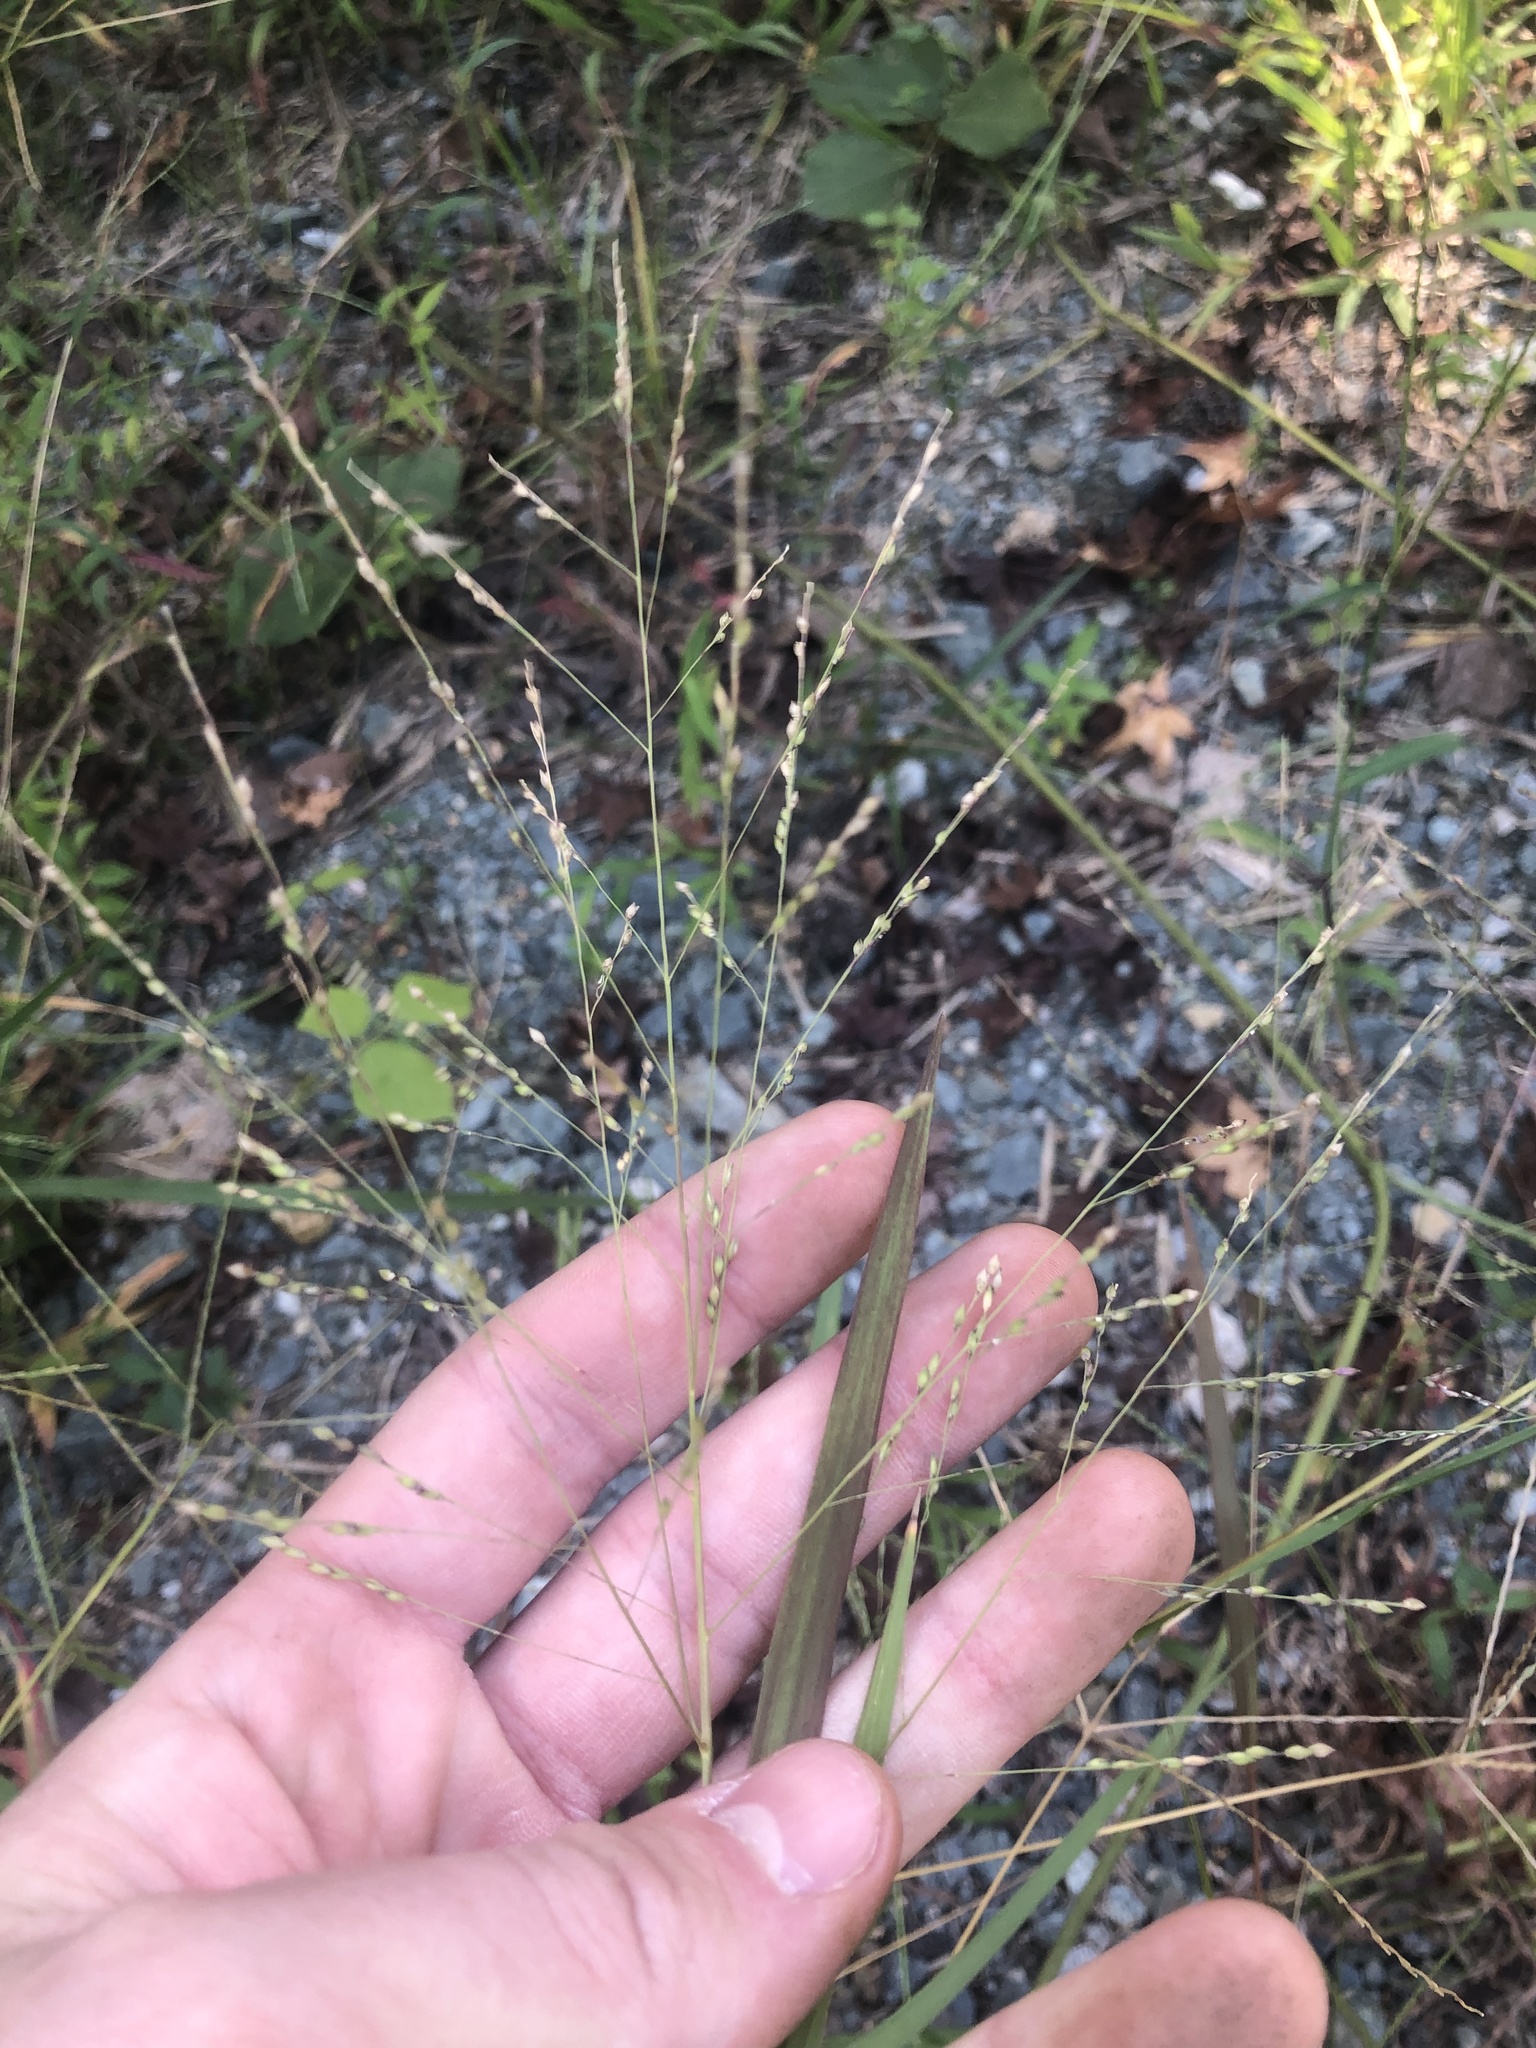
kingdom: Plantae
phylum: Tracheophyta
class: Liliopsida
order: Poales
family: Poaceae
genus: Panicum
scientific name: Panicum dichotomiflorum
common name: Autumn millet
